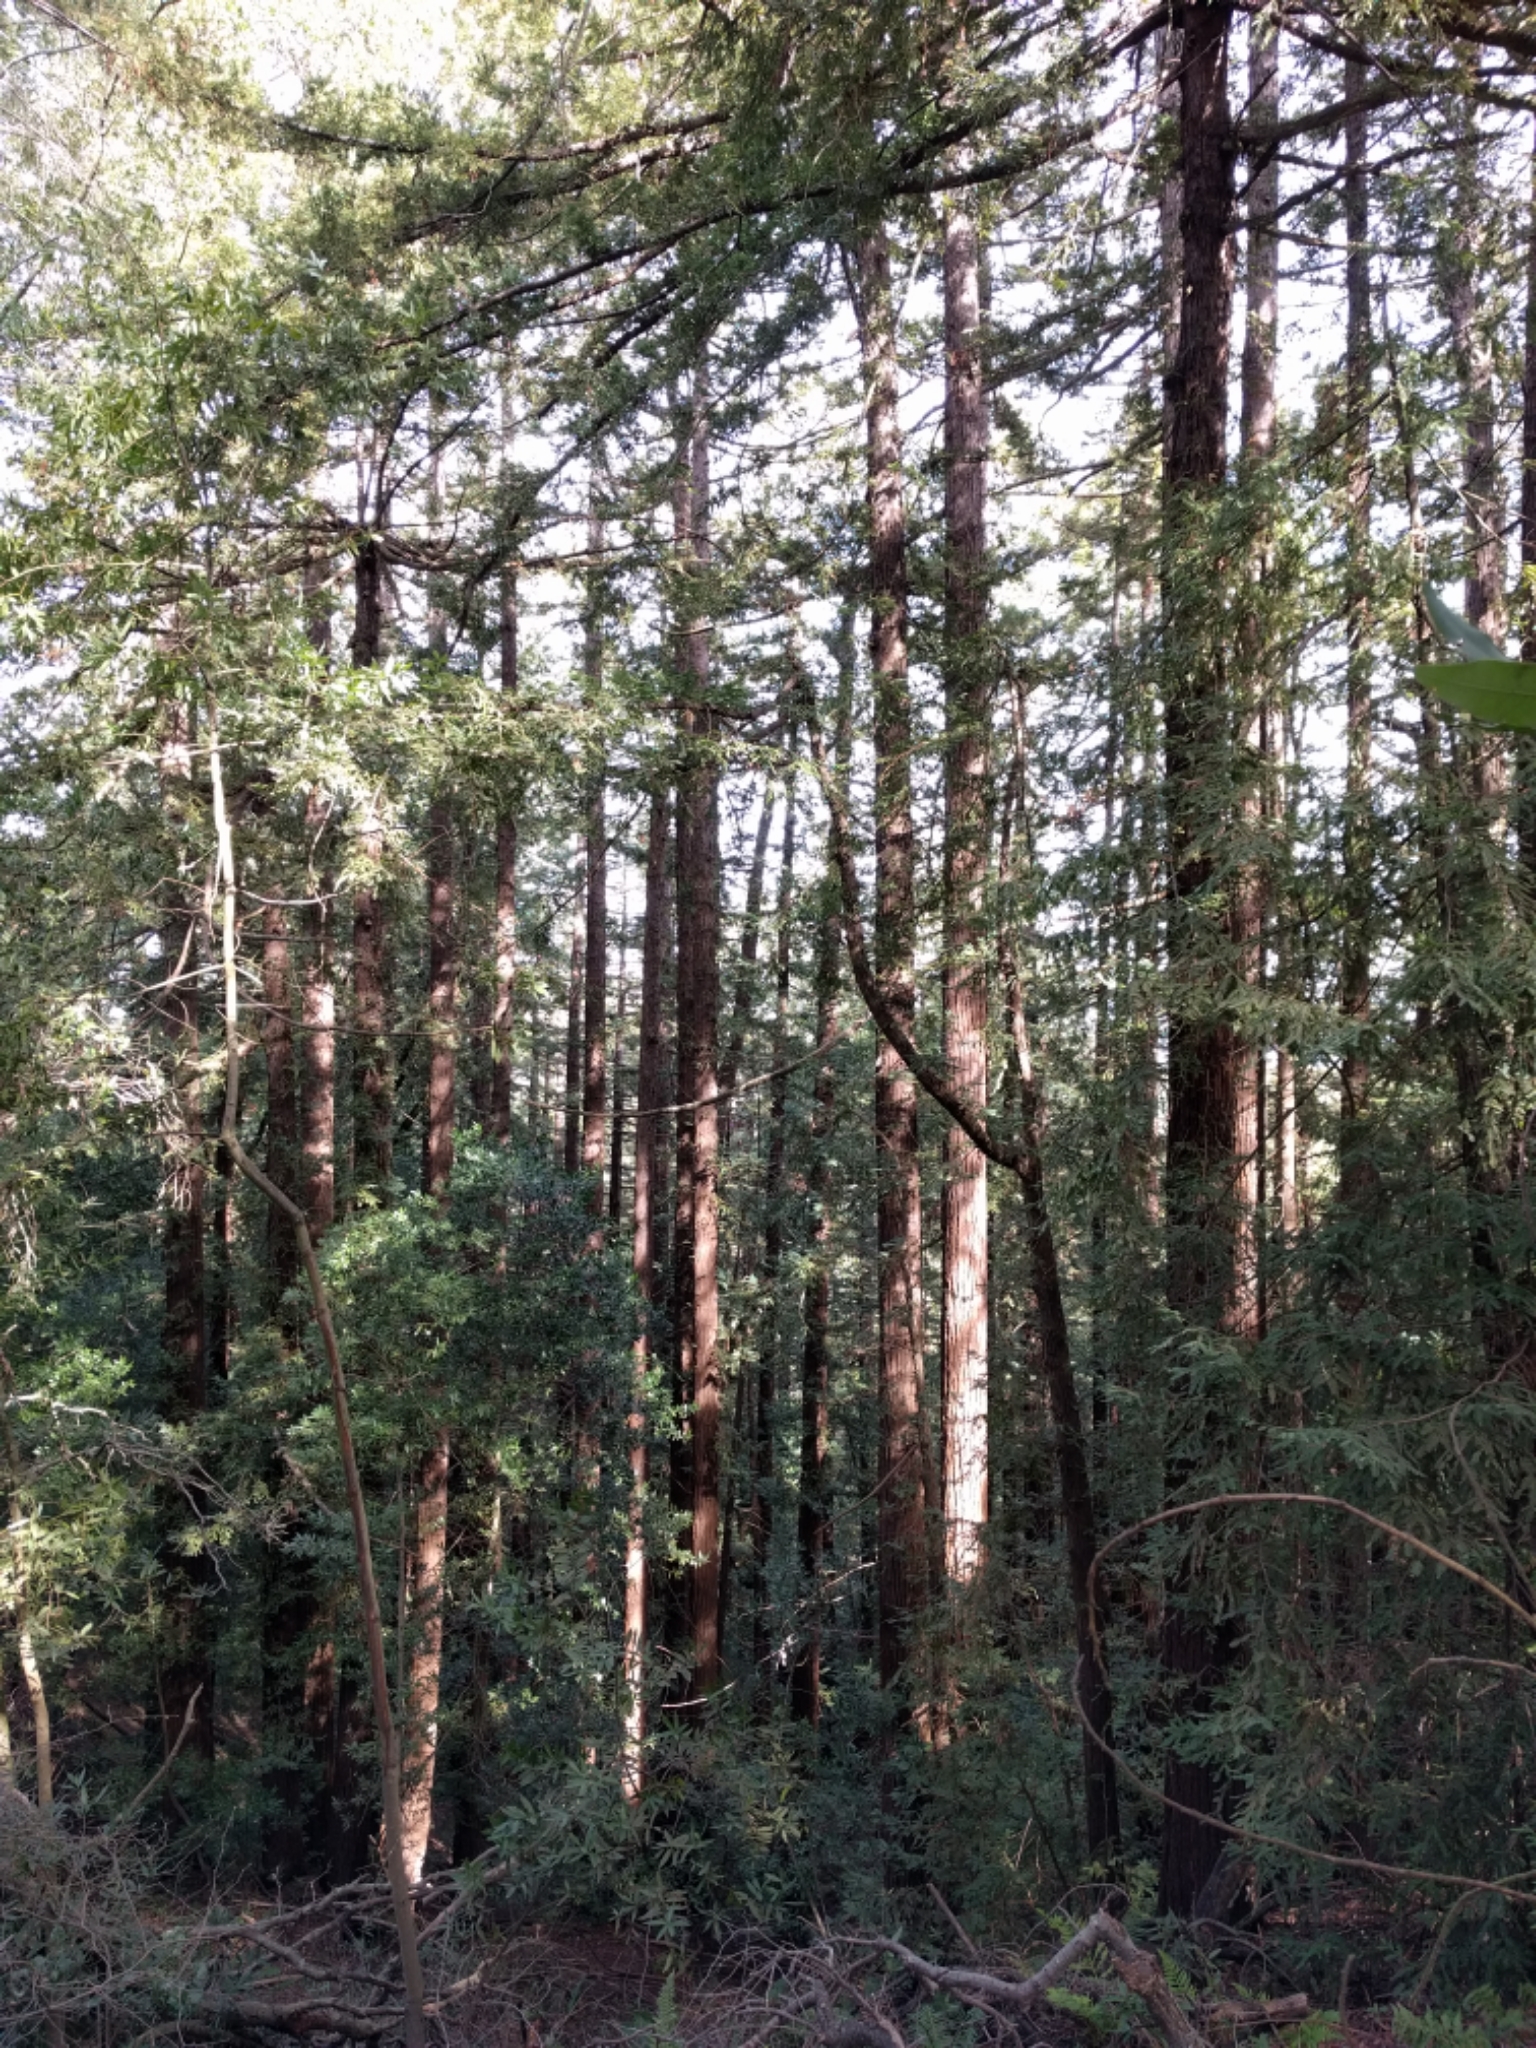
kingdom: Plantae
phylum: Tracheophyta
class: Pinopsida
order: Pinales
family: Cupressaceae
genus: Sequoia
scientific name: Sequoia sempervirens
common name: Coast redwood
